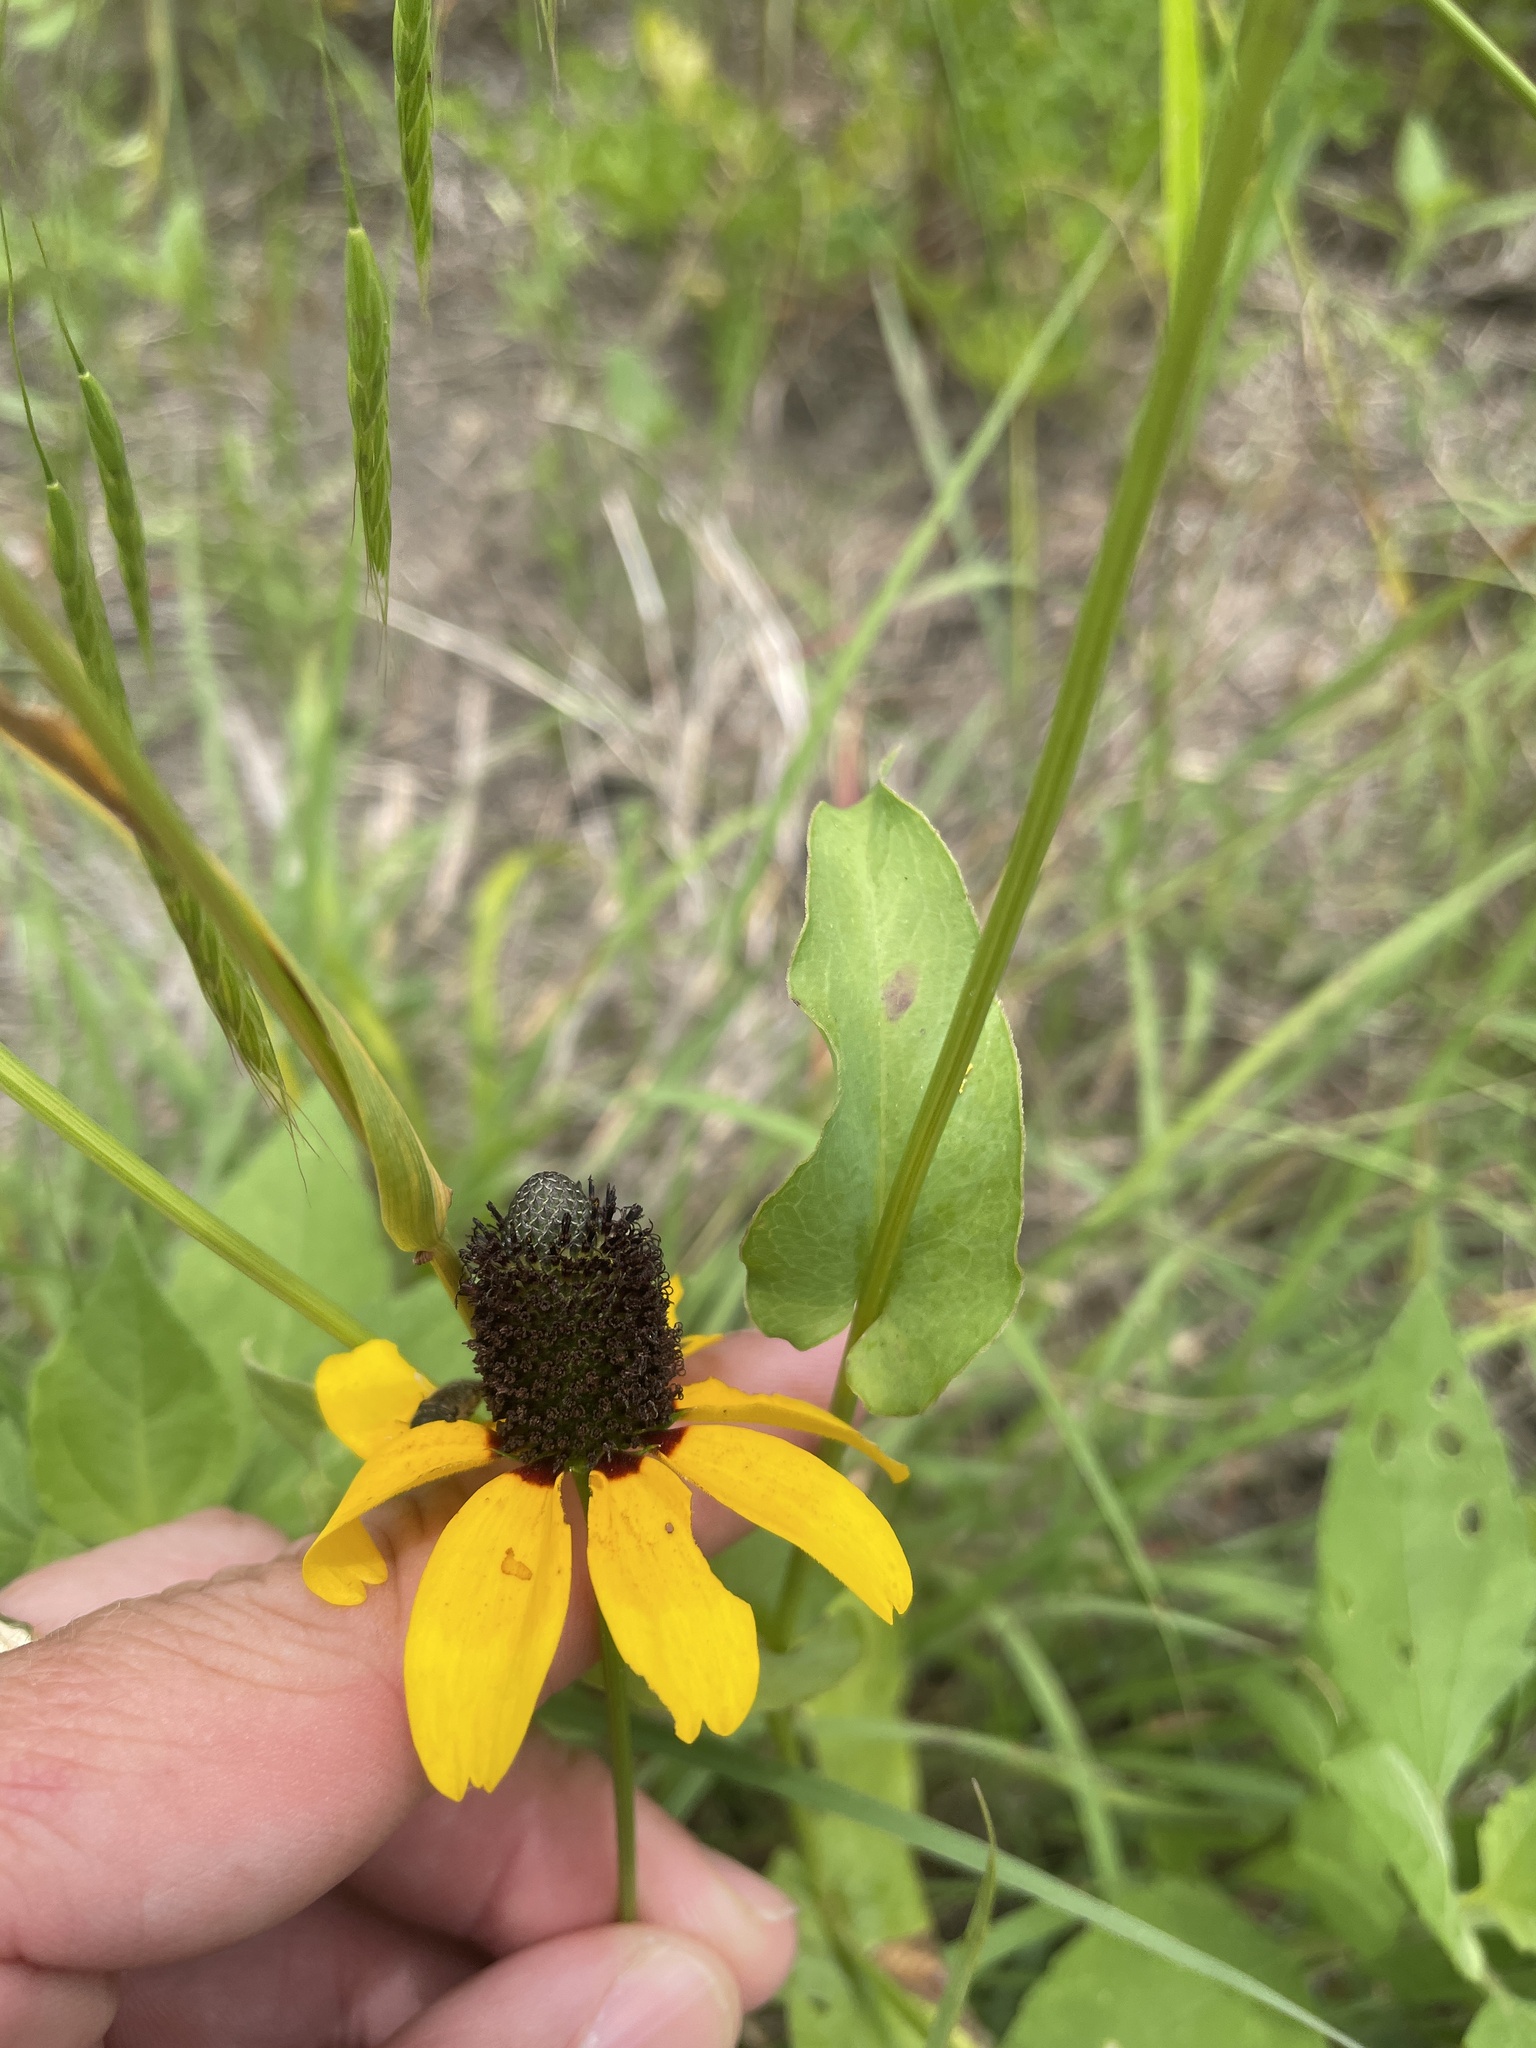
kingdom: Plantae
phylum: Tracheophyta
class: Magnoliopsida
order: Asterales
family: Asteraceae
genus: Rudbeckia
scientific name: Rudbeckia amplexicaulis
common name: Clasping-leaf coneflower
